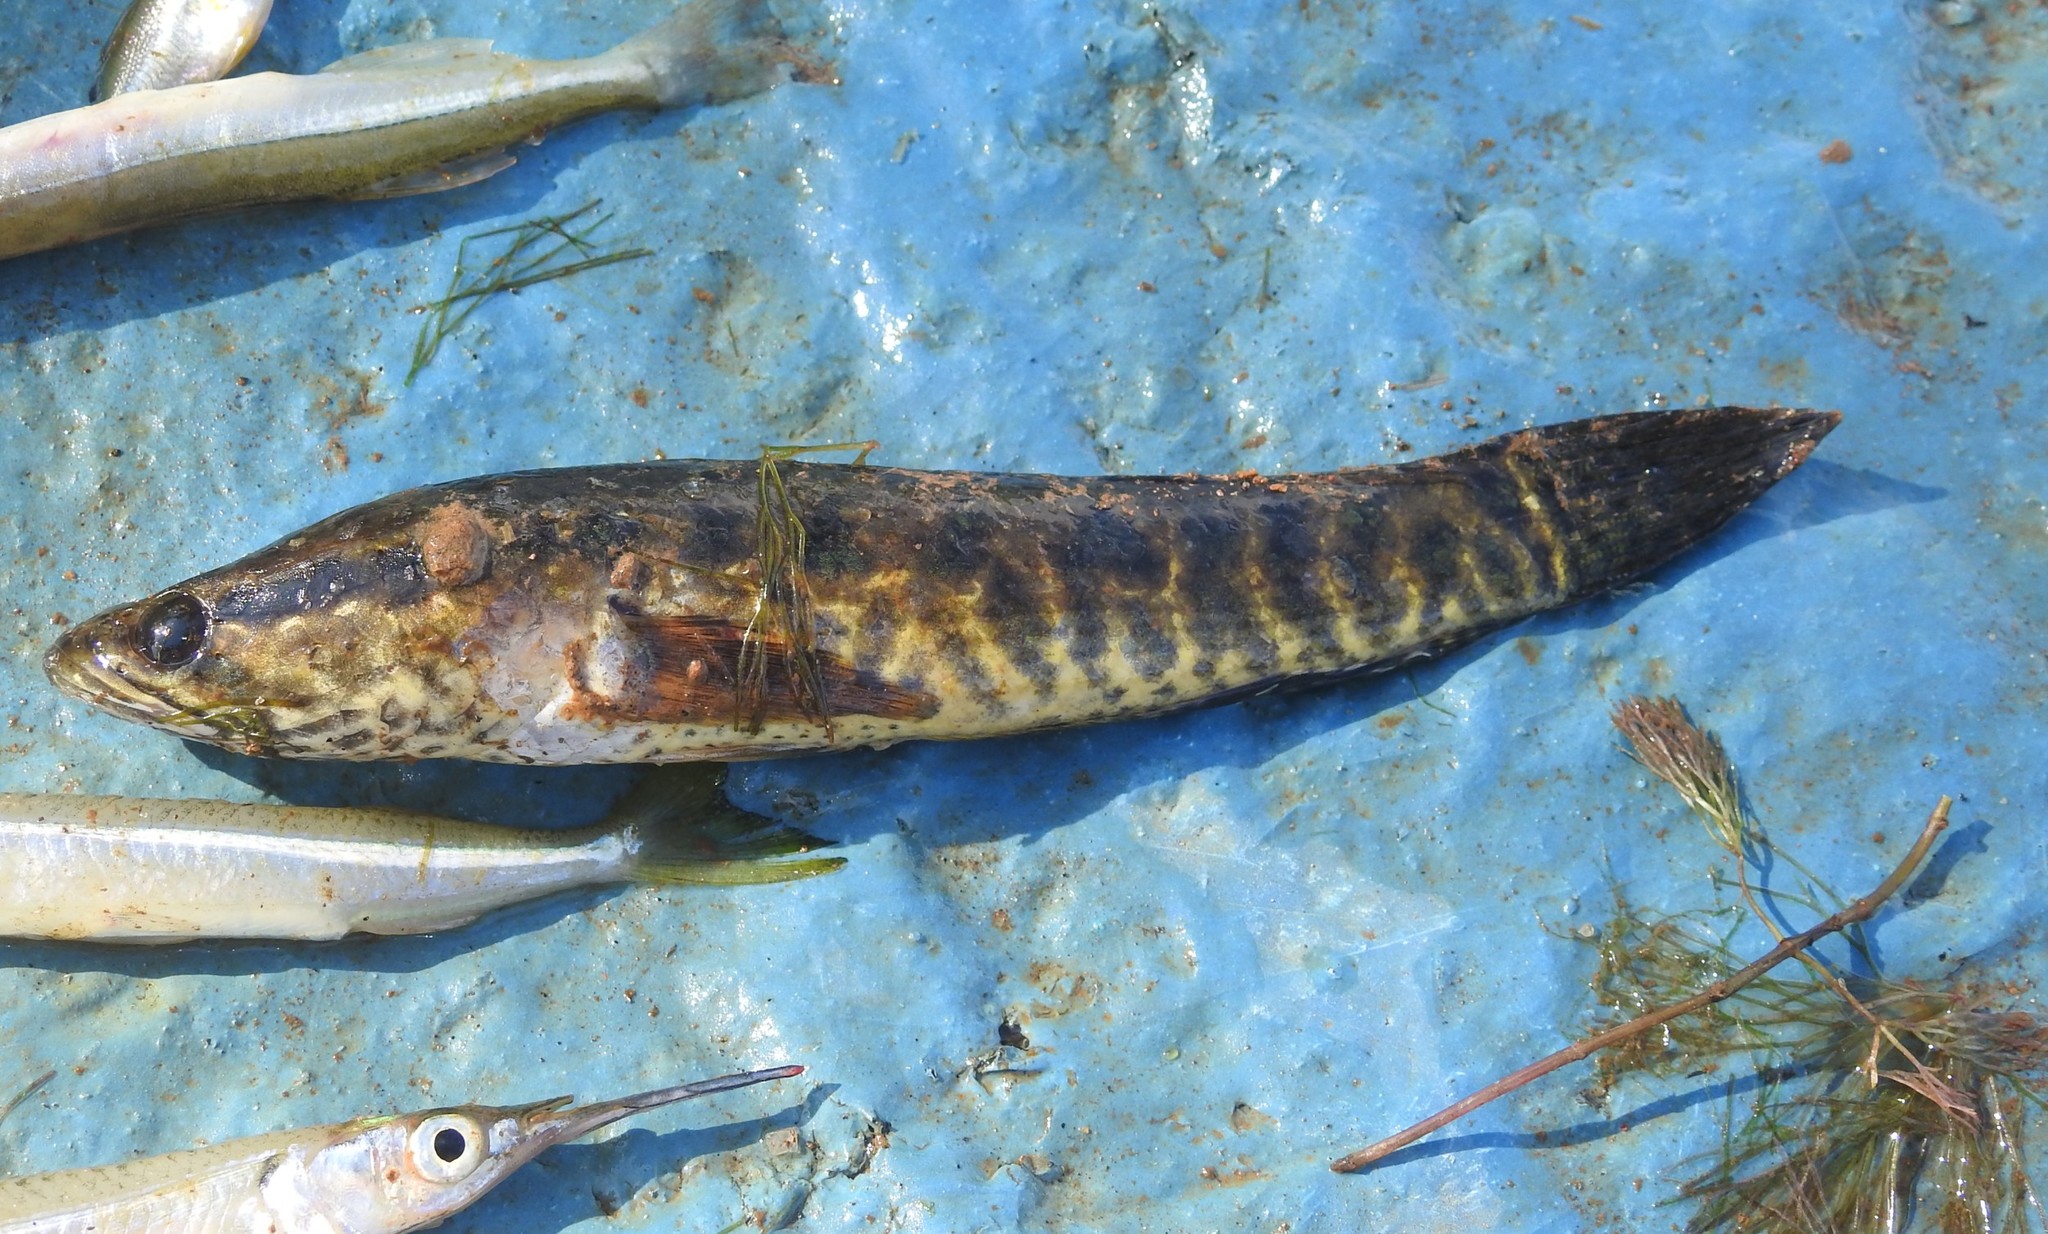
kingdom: Animalia
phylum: Chordata
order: Perciformes
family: Channidae
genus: Channa
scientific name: Channa punctata
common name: Spotted snakehead
